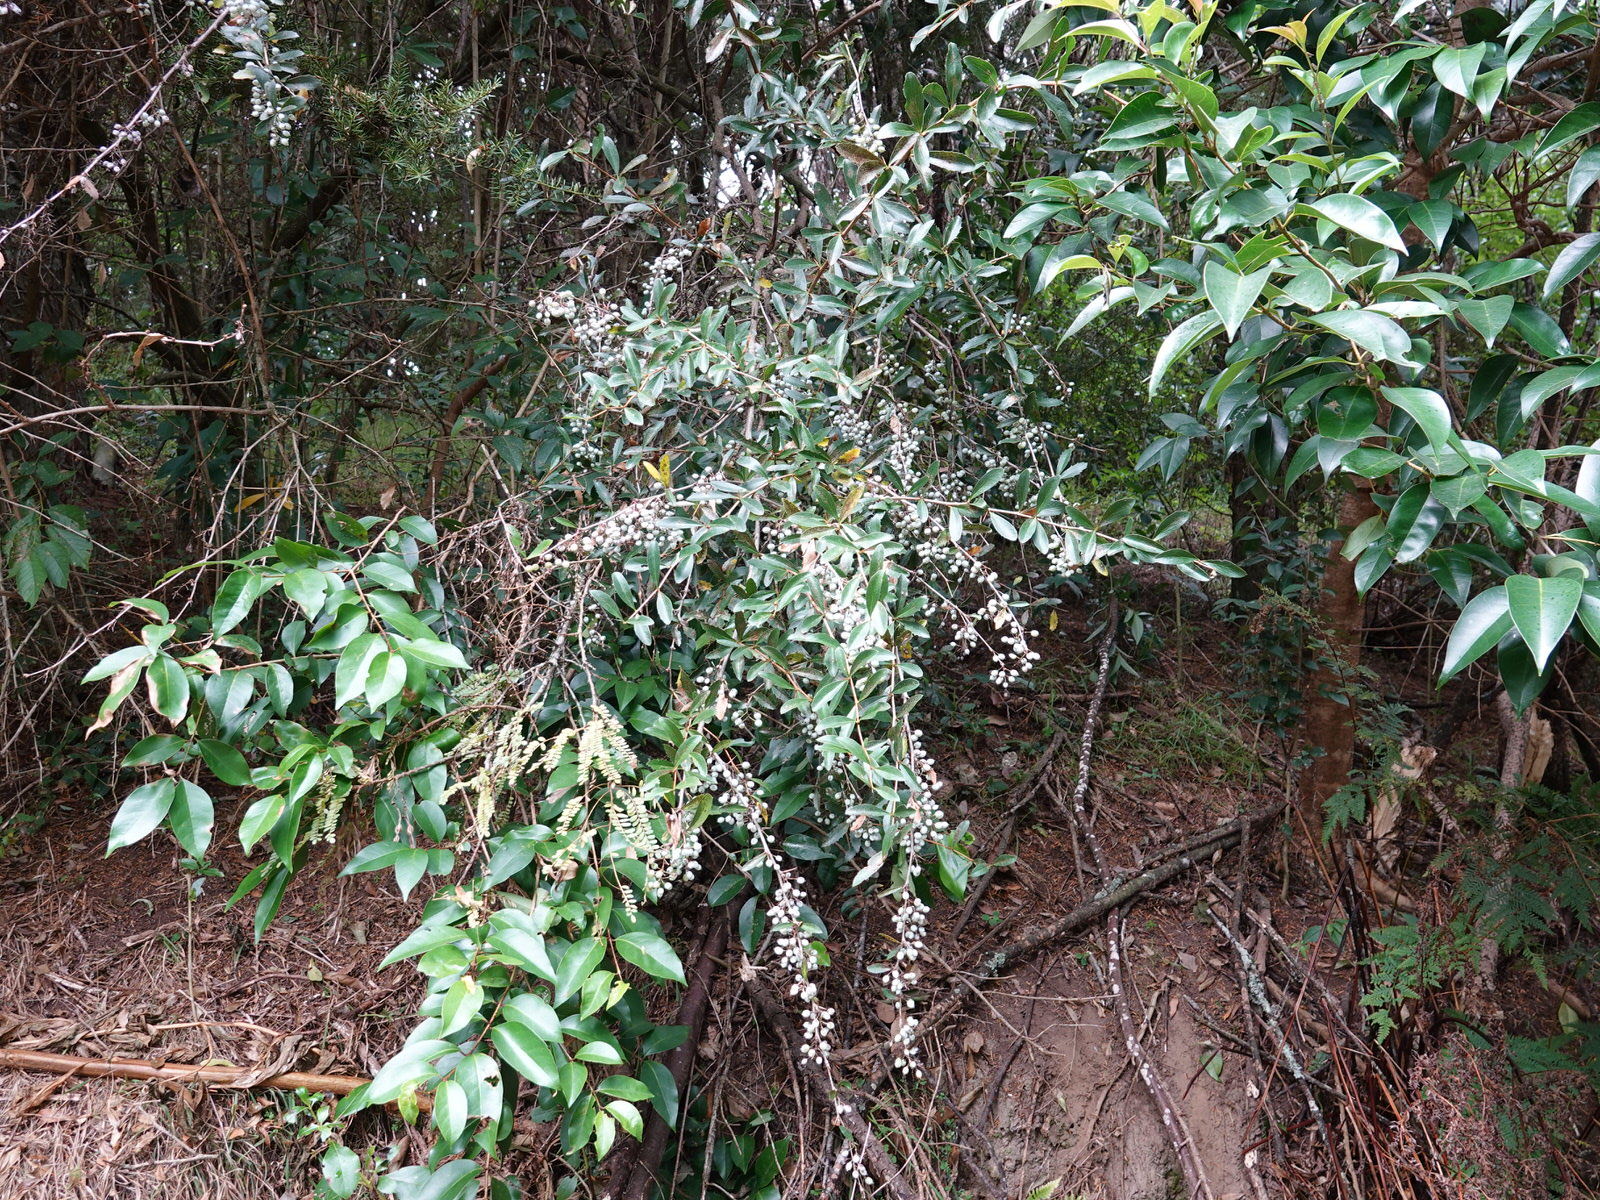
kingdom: Plantae
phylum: Tracheophyta
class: Magnoliopsida
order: Ranunculales
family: Berberidaceae
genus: Berberis
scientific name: Berberis glaucocarpa
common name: Great barberry
